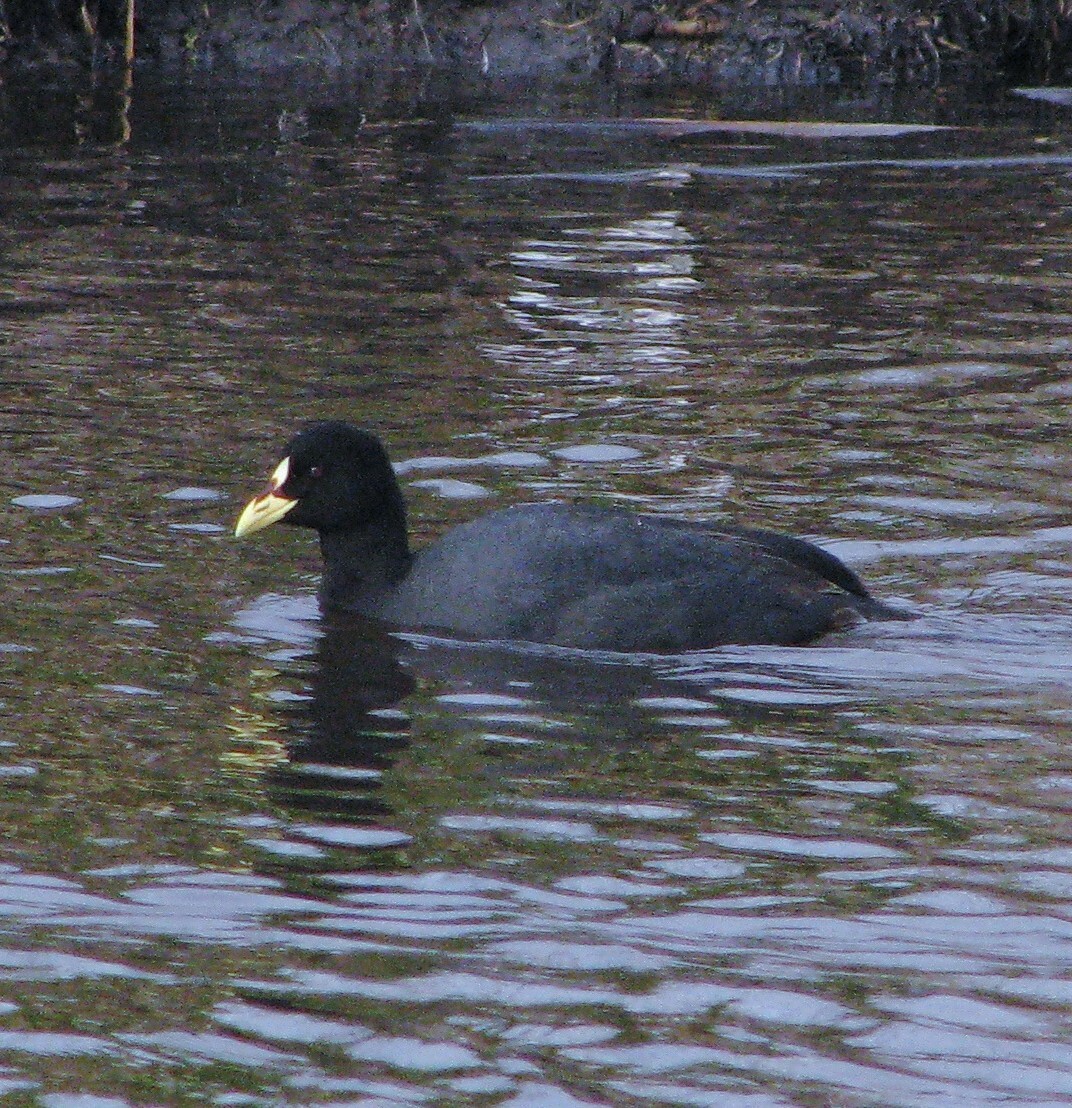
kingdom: Animalia
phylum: Chordata
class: Aves
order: Gruiformes
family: Rallidae
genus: Fulica
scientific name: Fulica armillata
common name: Red-gartered coot
